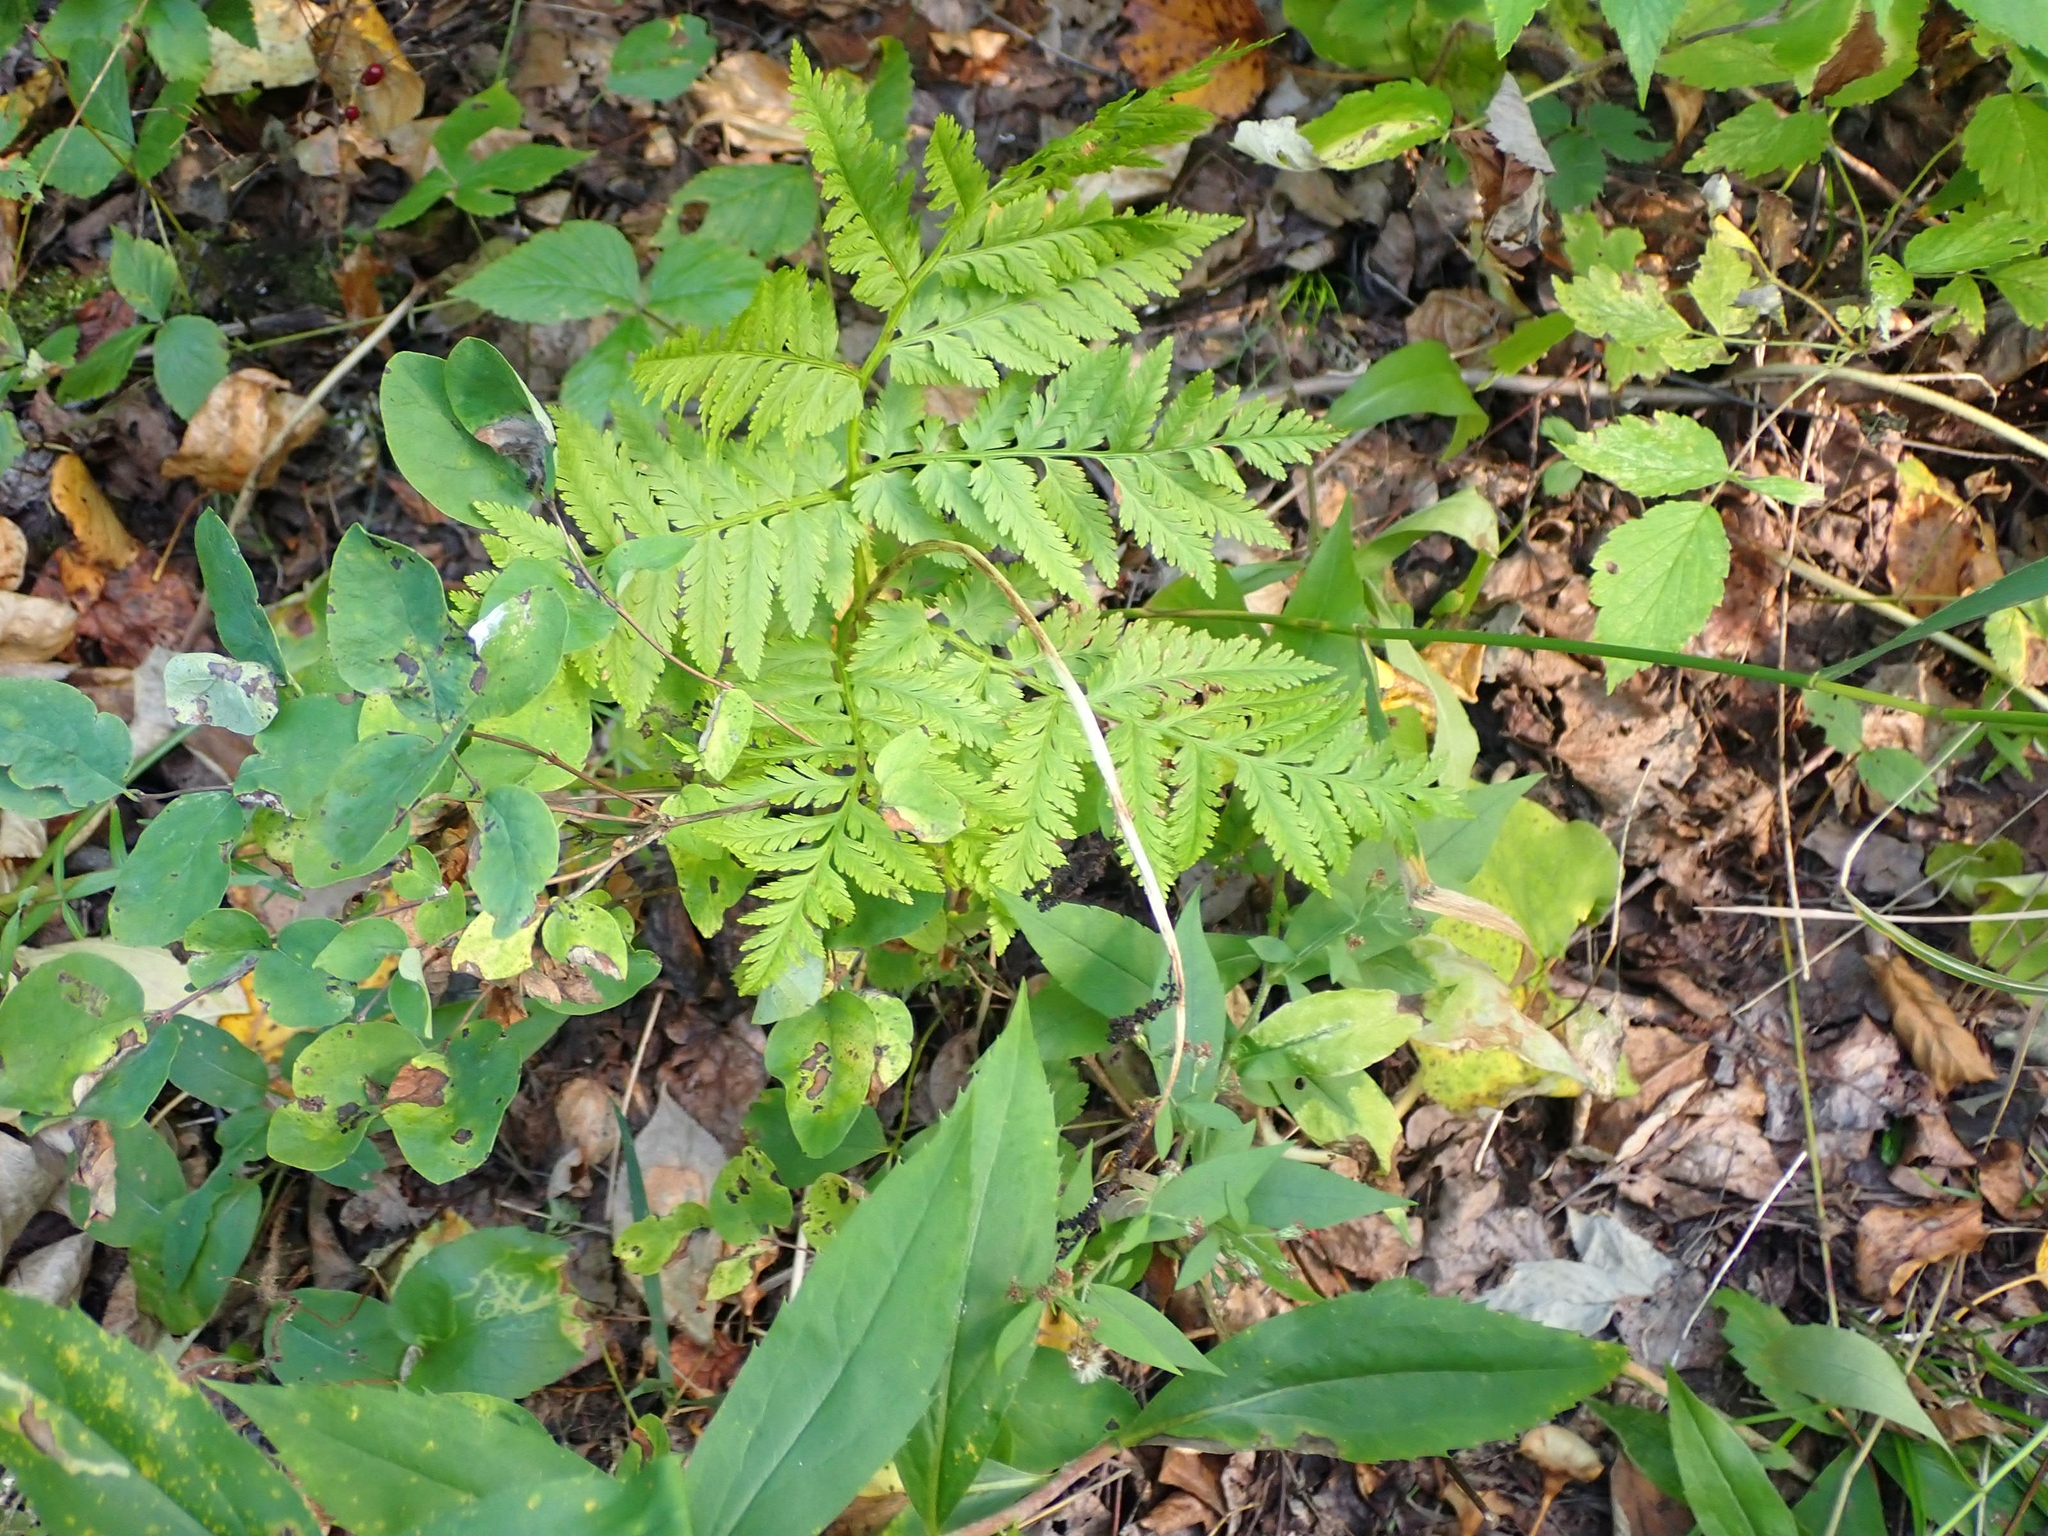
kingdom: Plantae
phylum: Tracheophyta
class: Polypodiopsida
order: Ophioglossales
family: Ophioglossaceae
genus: Botrypus
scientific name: Botrypus virginianus
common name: Common grapefern
